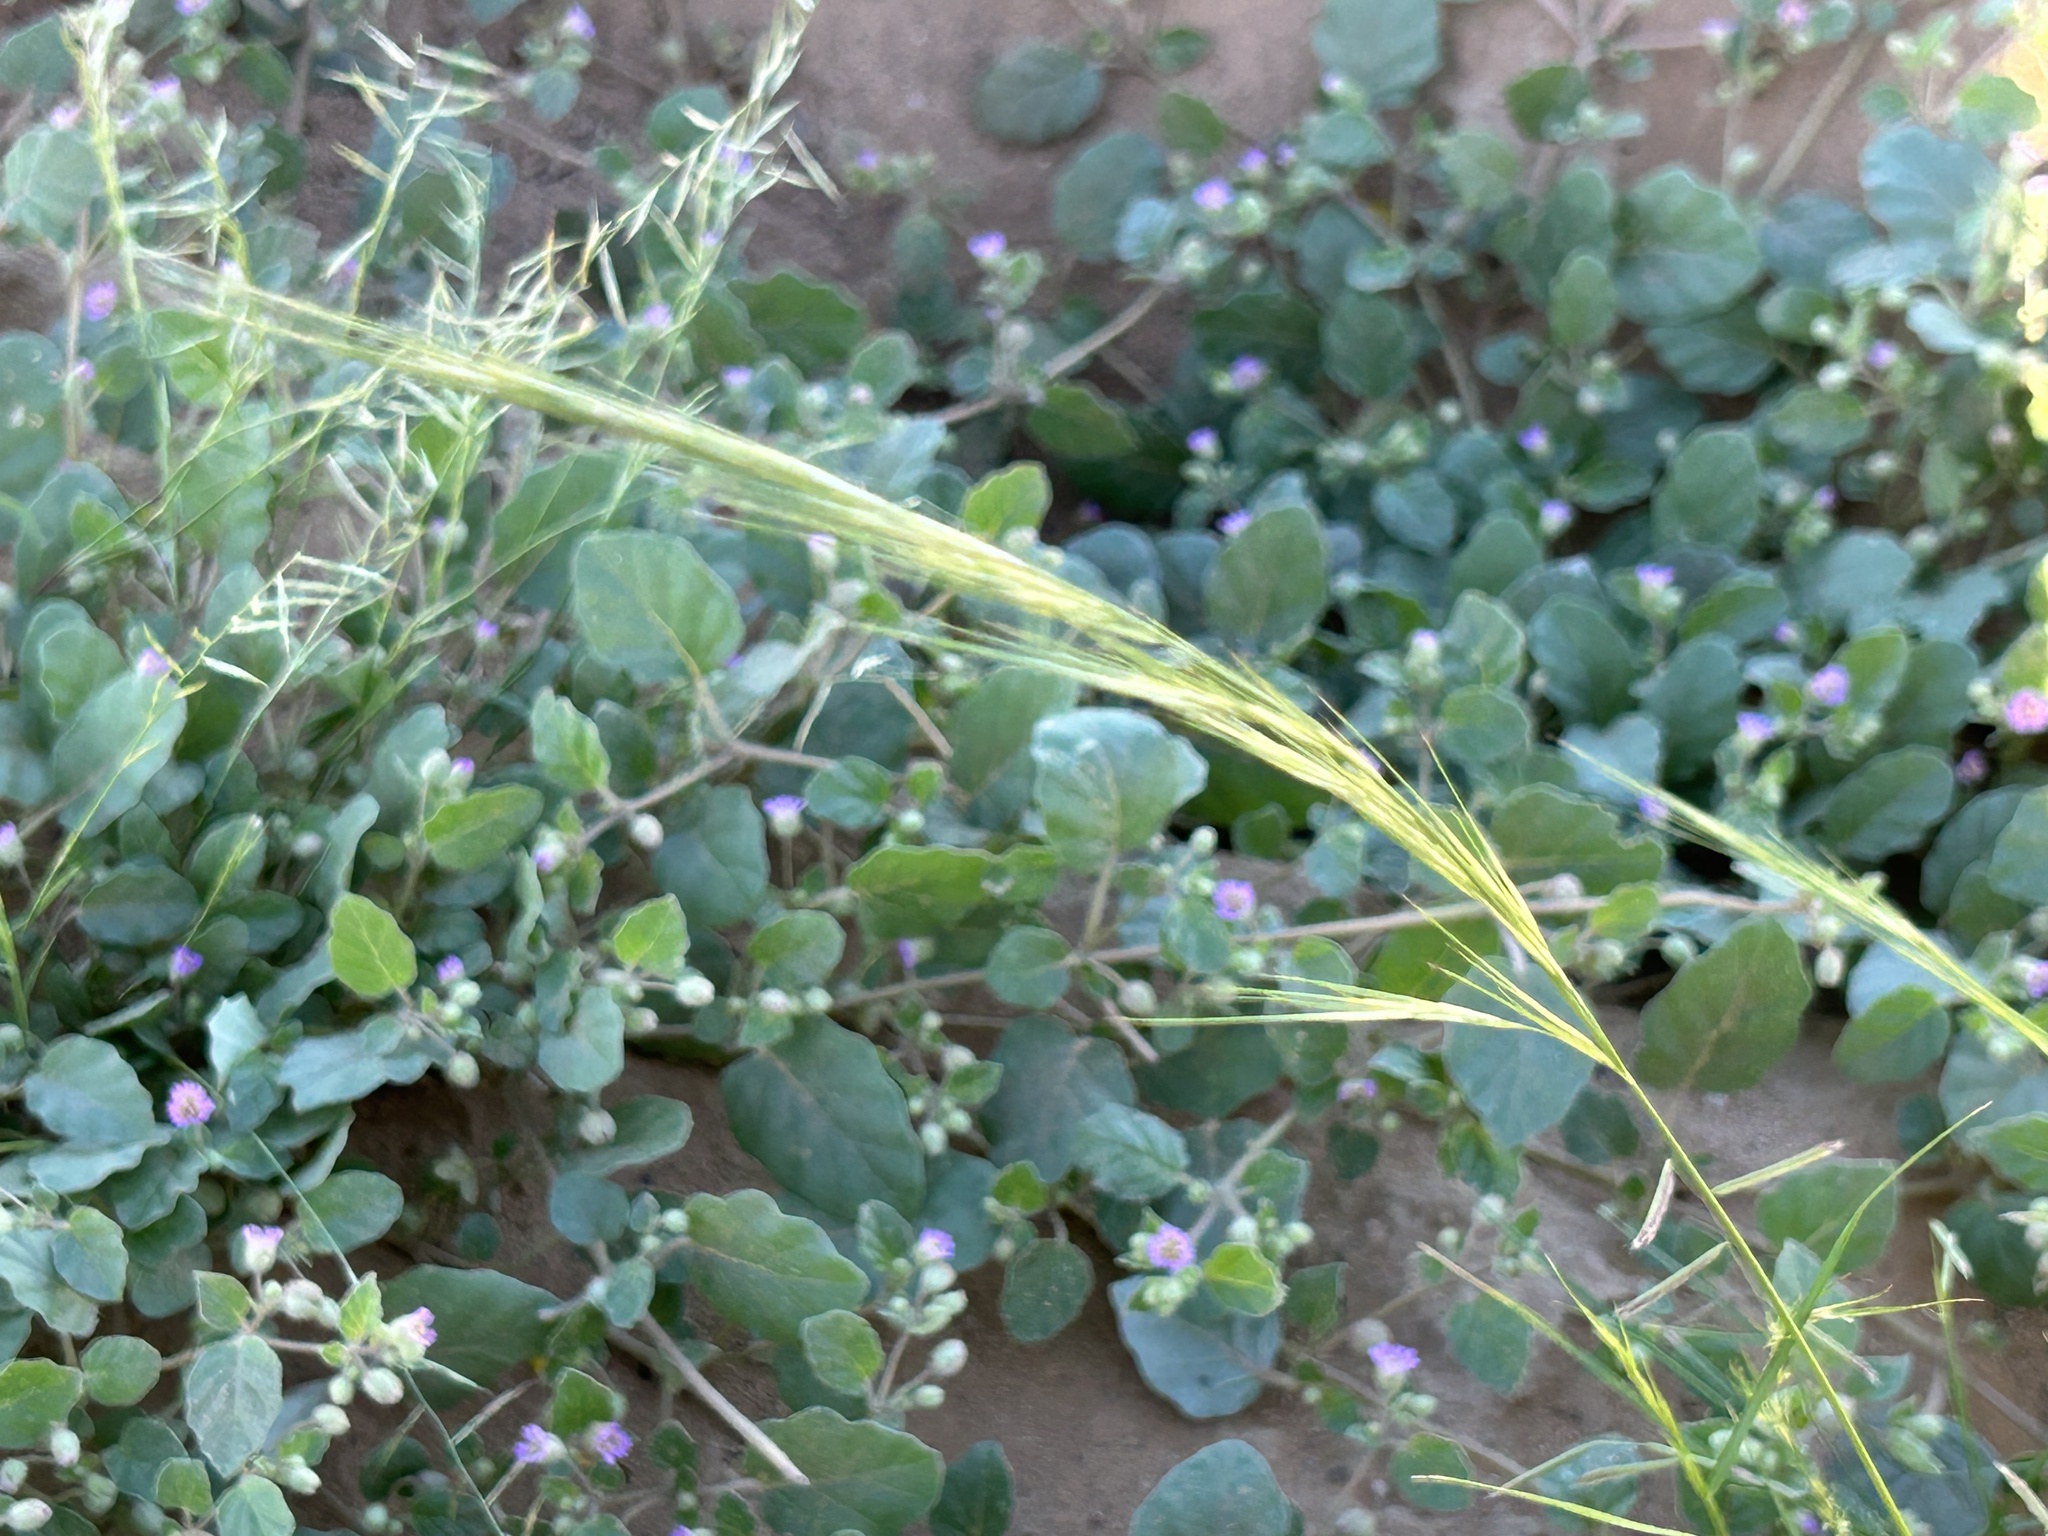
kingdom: Plantae
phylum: Tracheophyta
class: Liliopsida
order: Poales
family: Poaceae
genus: Bouteloua
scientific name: Bouteloua aristidoides
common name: Needle grama
